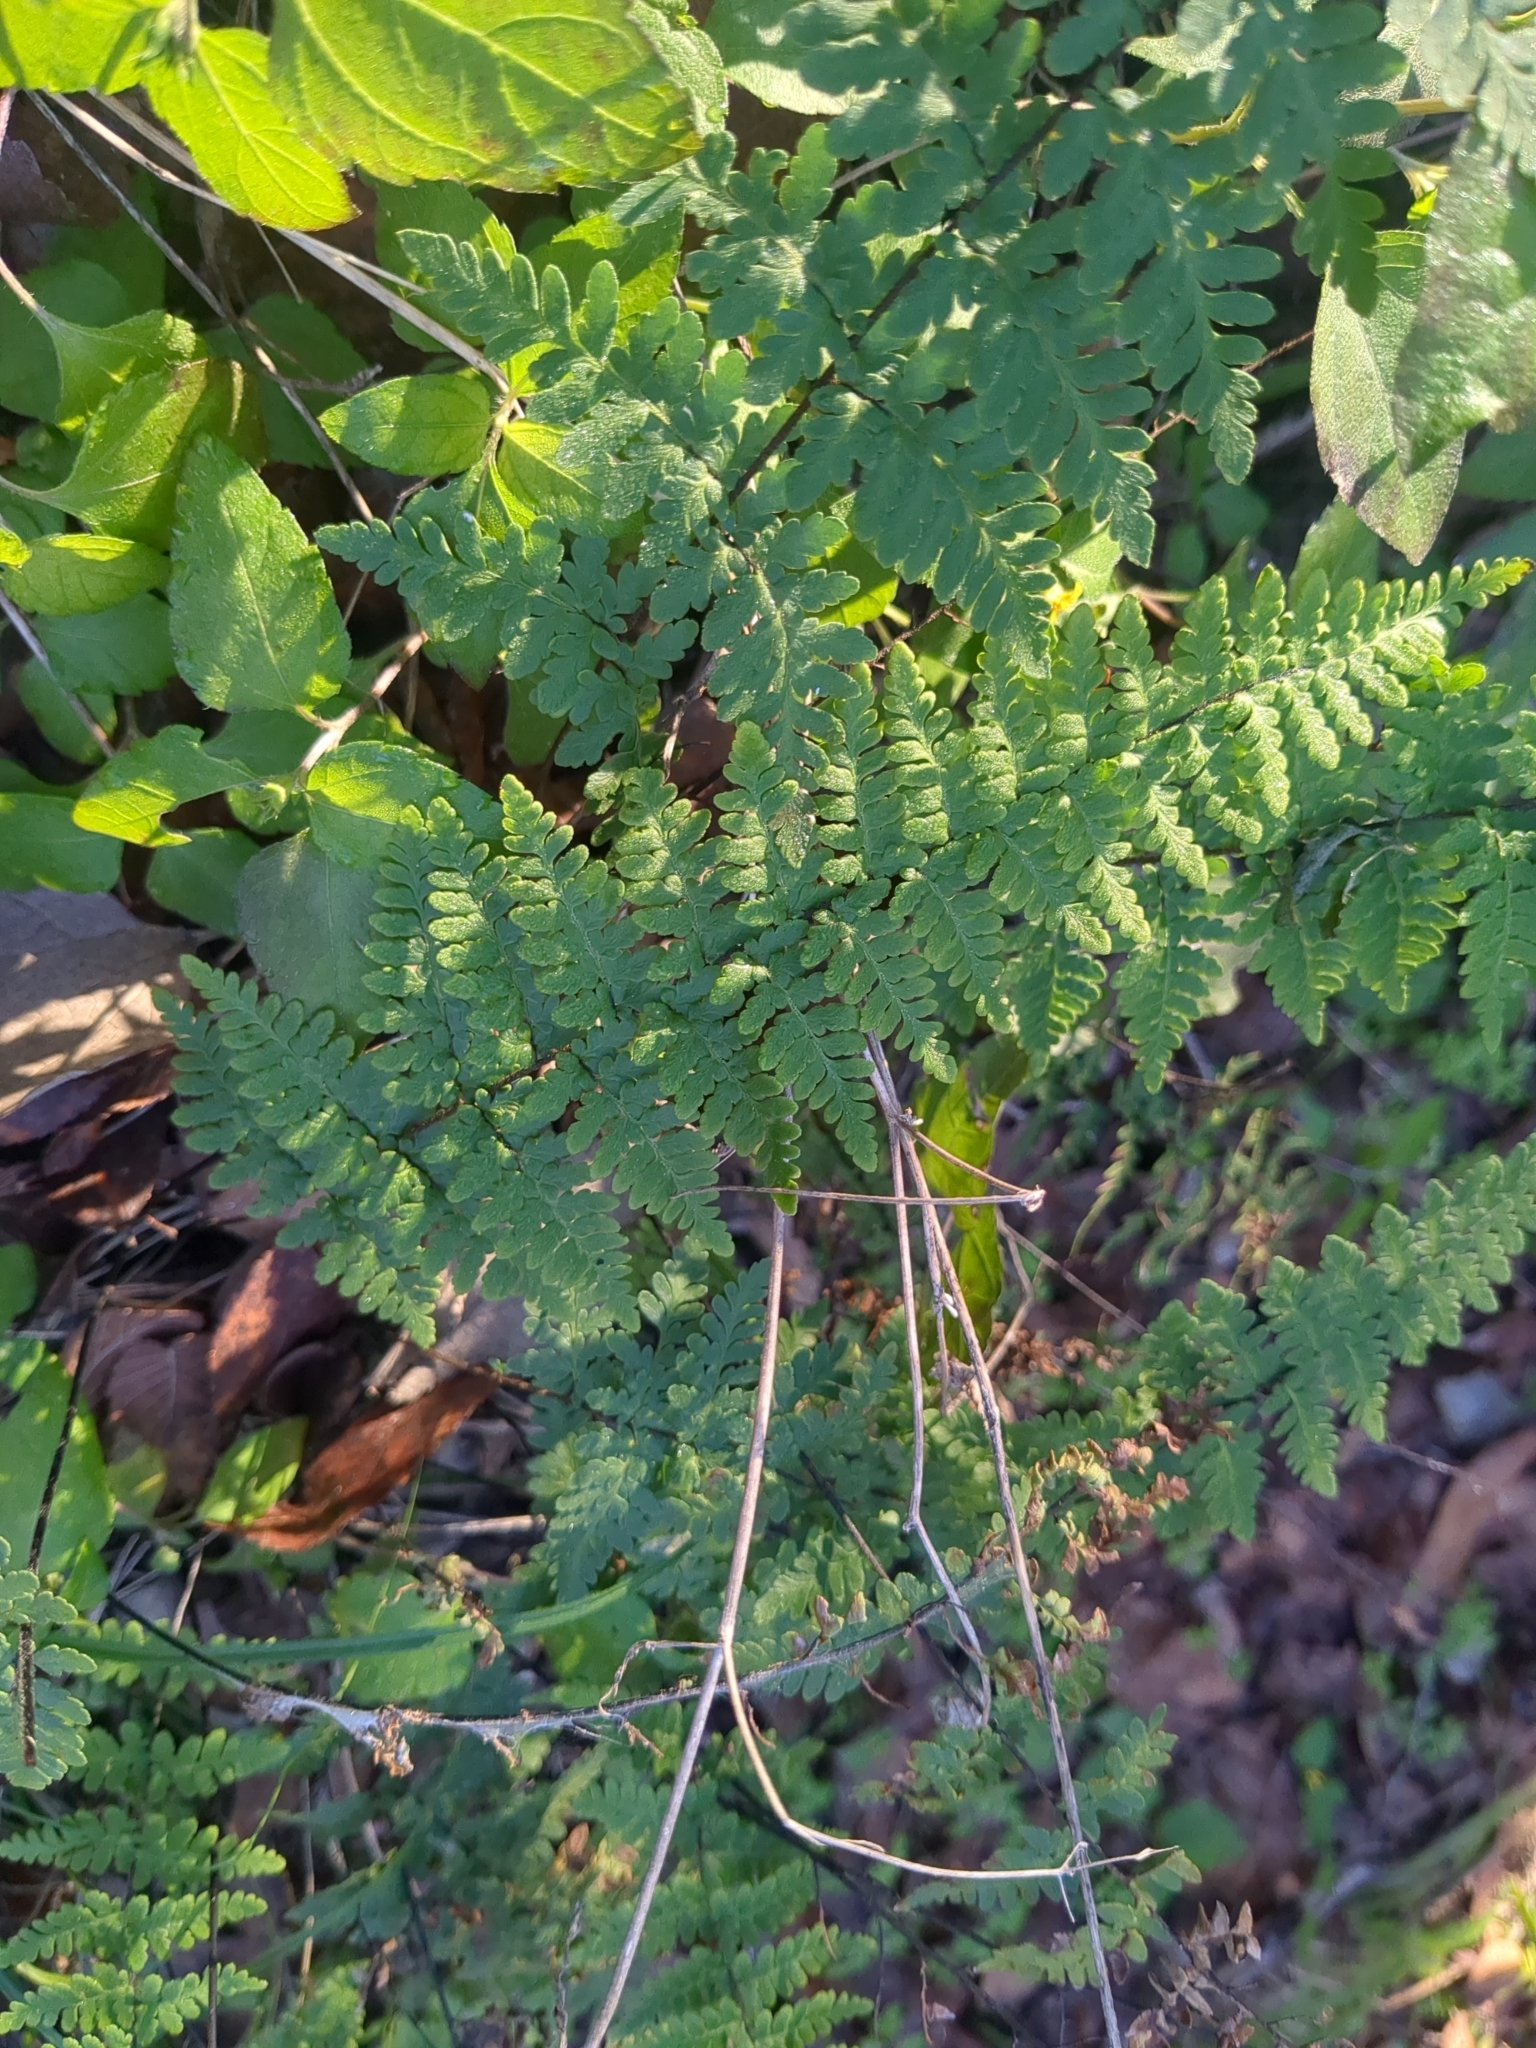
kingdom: Plantae
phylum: Tracheophyta
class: Polypodiopsida
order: Polypodiales
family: Pteridaceae
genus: Myriopteris
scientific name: Myriopteris alabamensis
